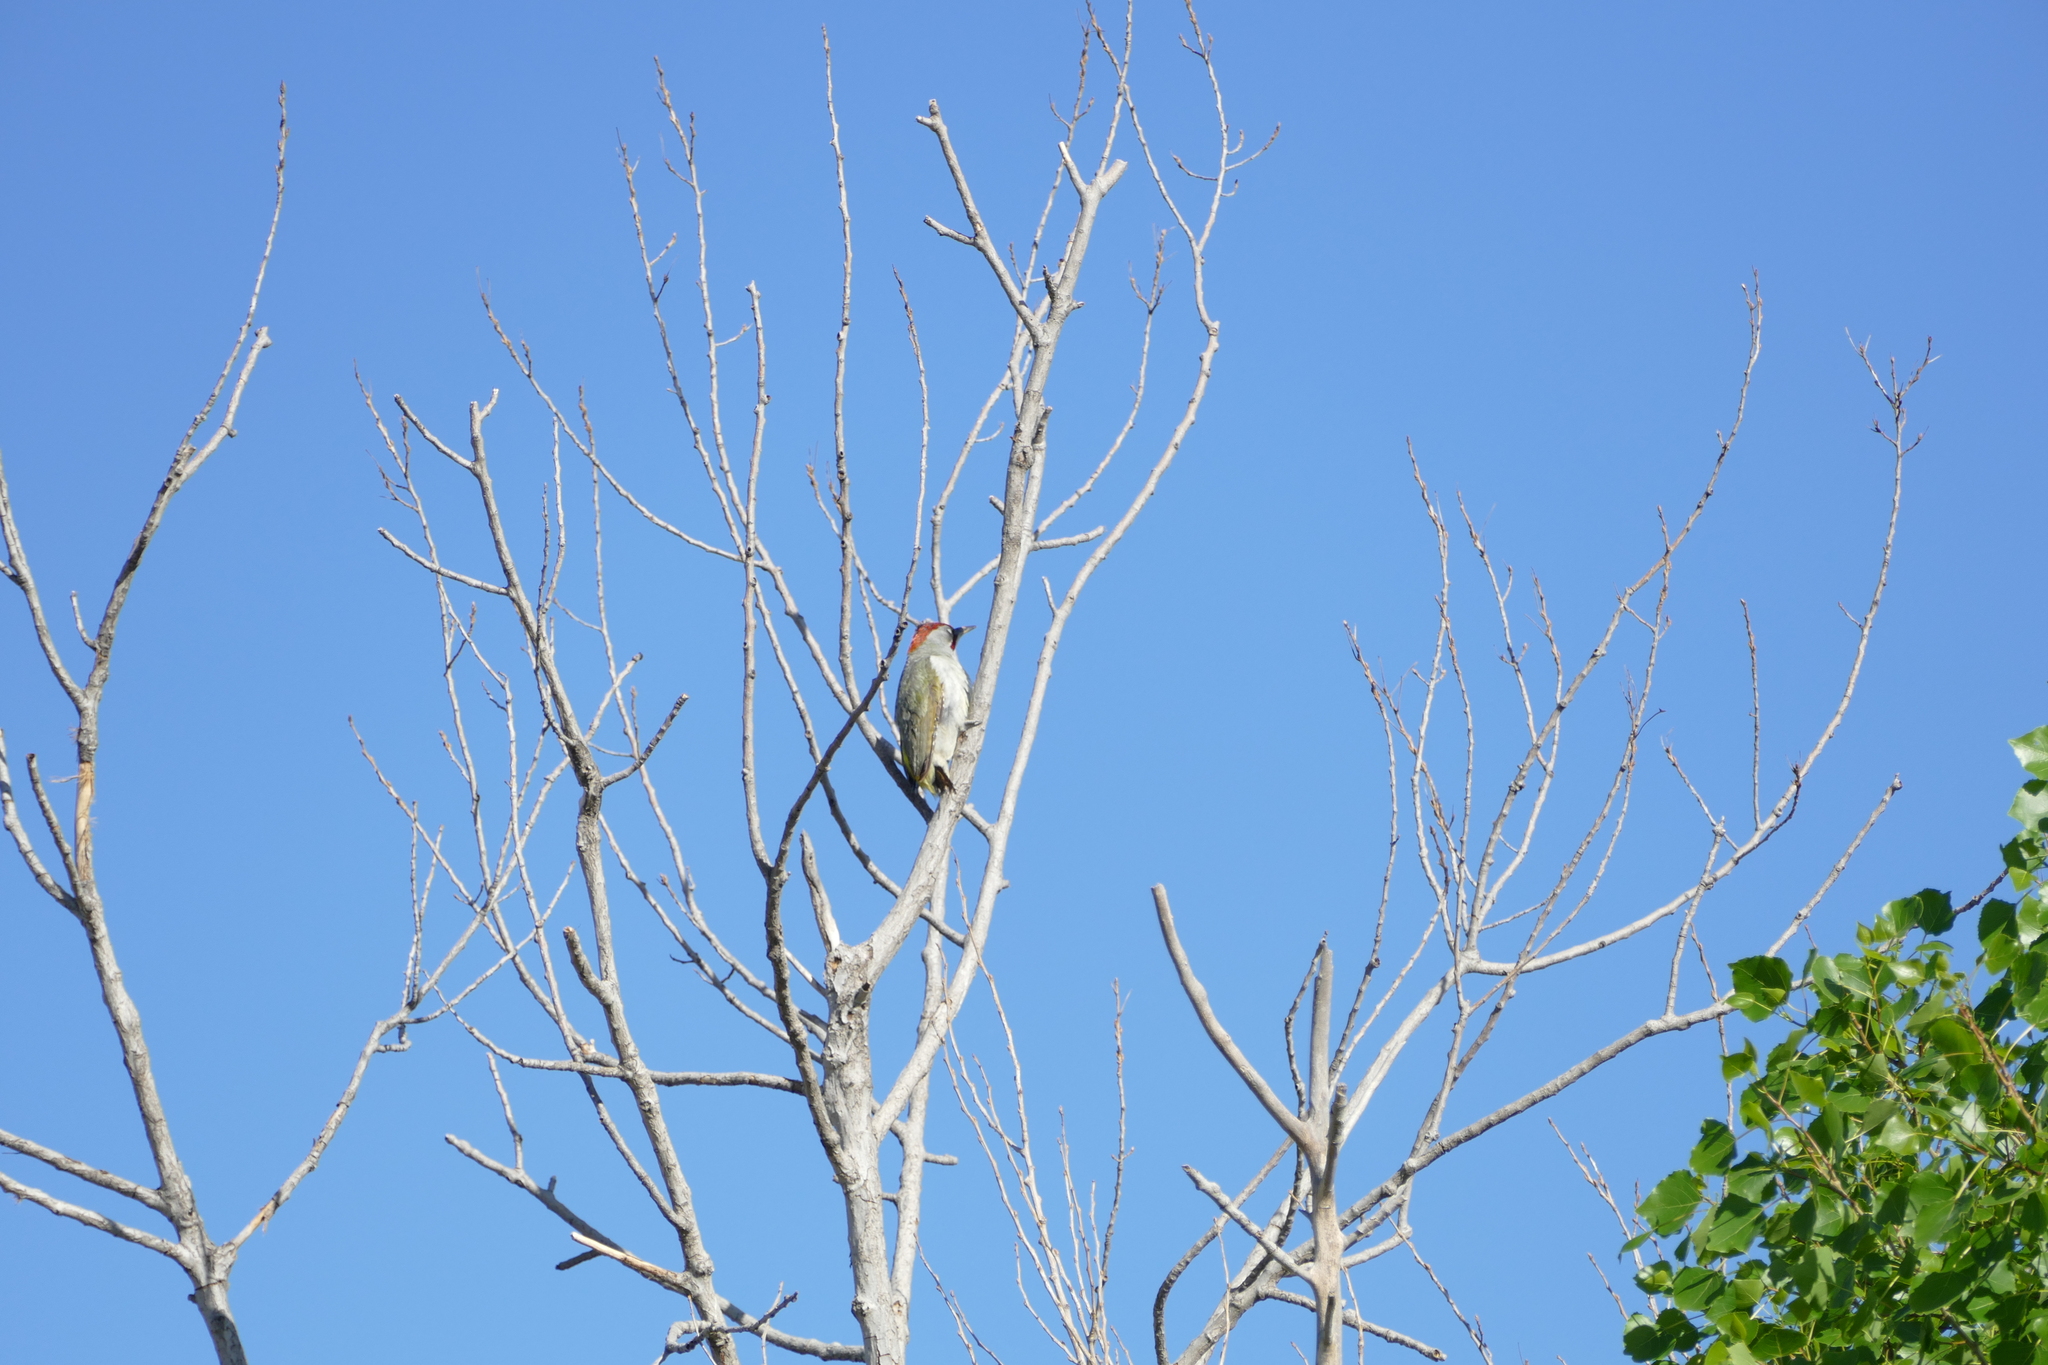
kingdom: Animalia
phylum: Chordata
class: Aves
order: Piciformes
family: Picidae
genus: Picus
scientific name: Picus sharpei
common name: Iberian green woodpecker
